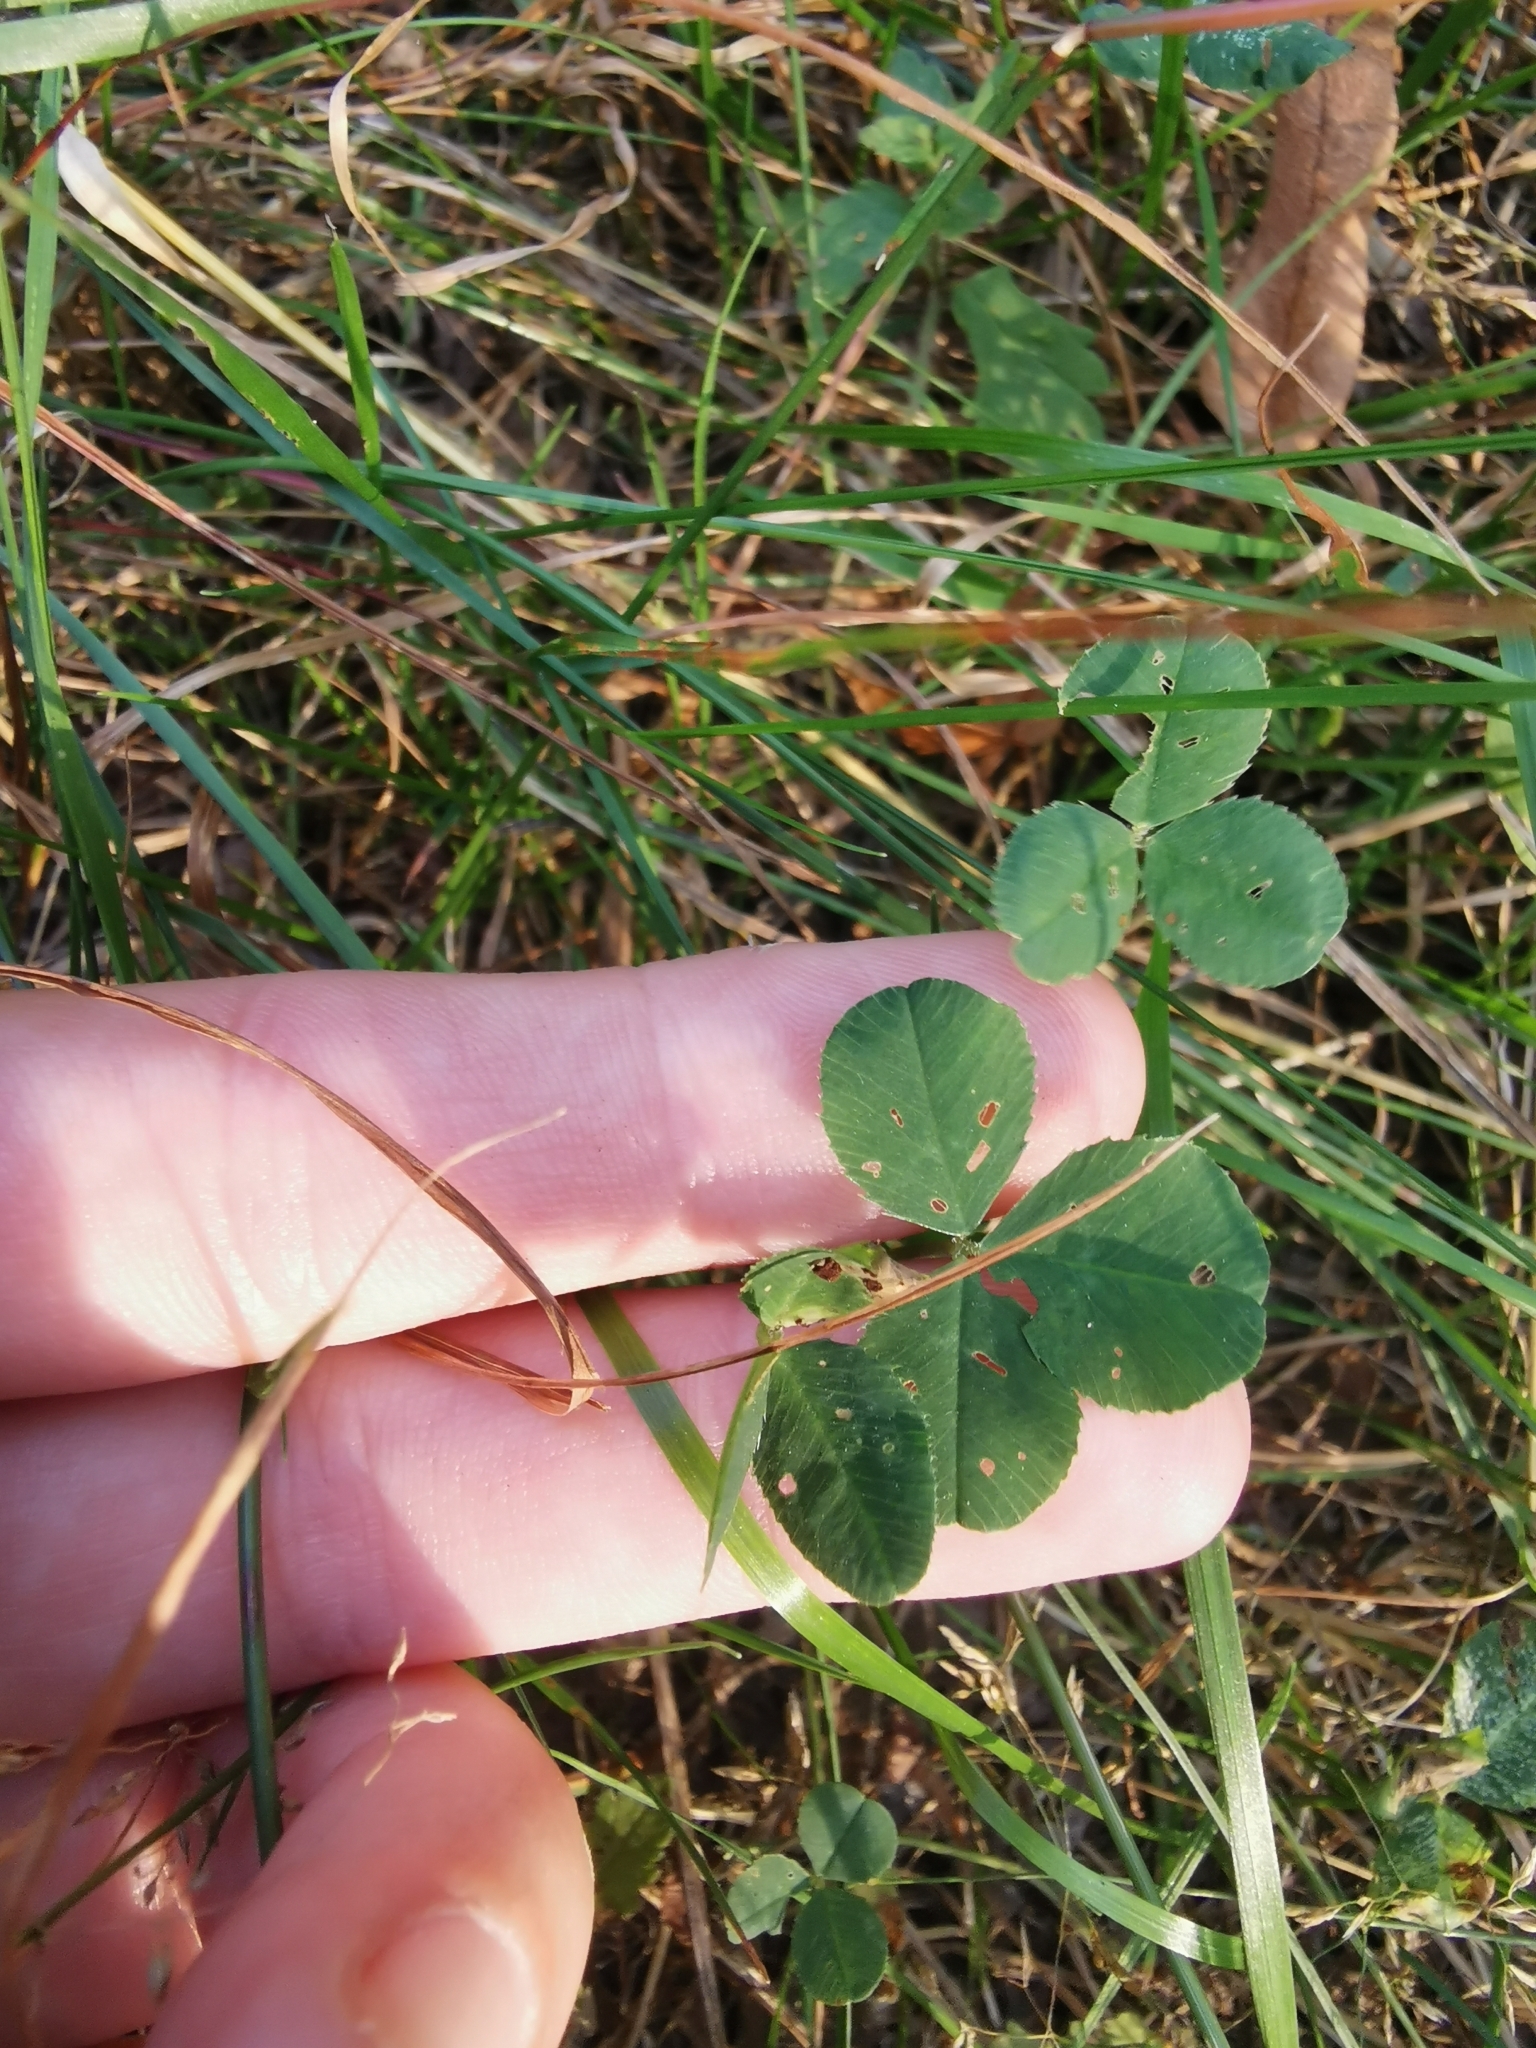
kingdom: Plantae
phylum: Tracheophyta
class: Magnoliopsida
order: Fabales
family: Fabaceae
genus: Trifolium
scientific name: Trifolium repens
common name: White clover
